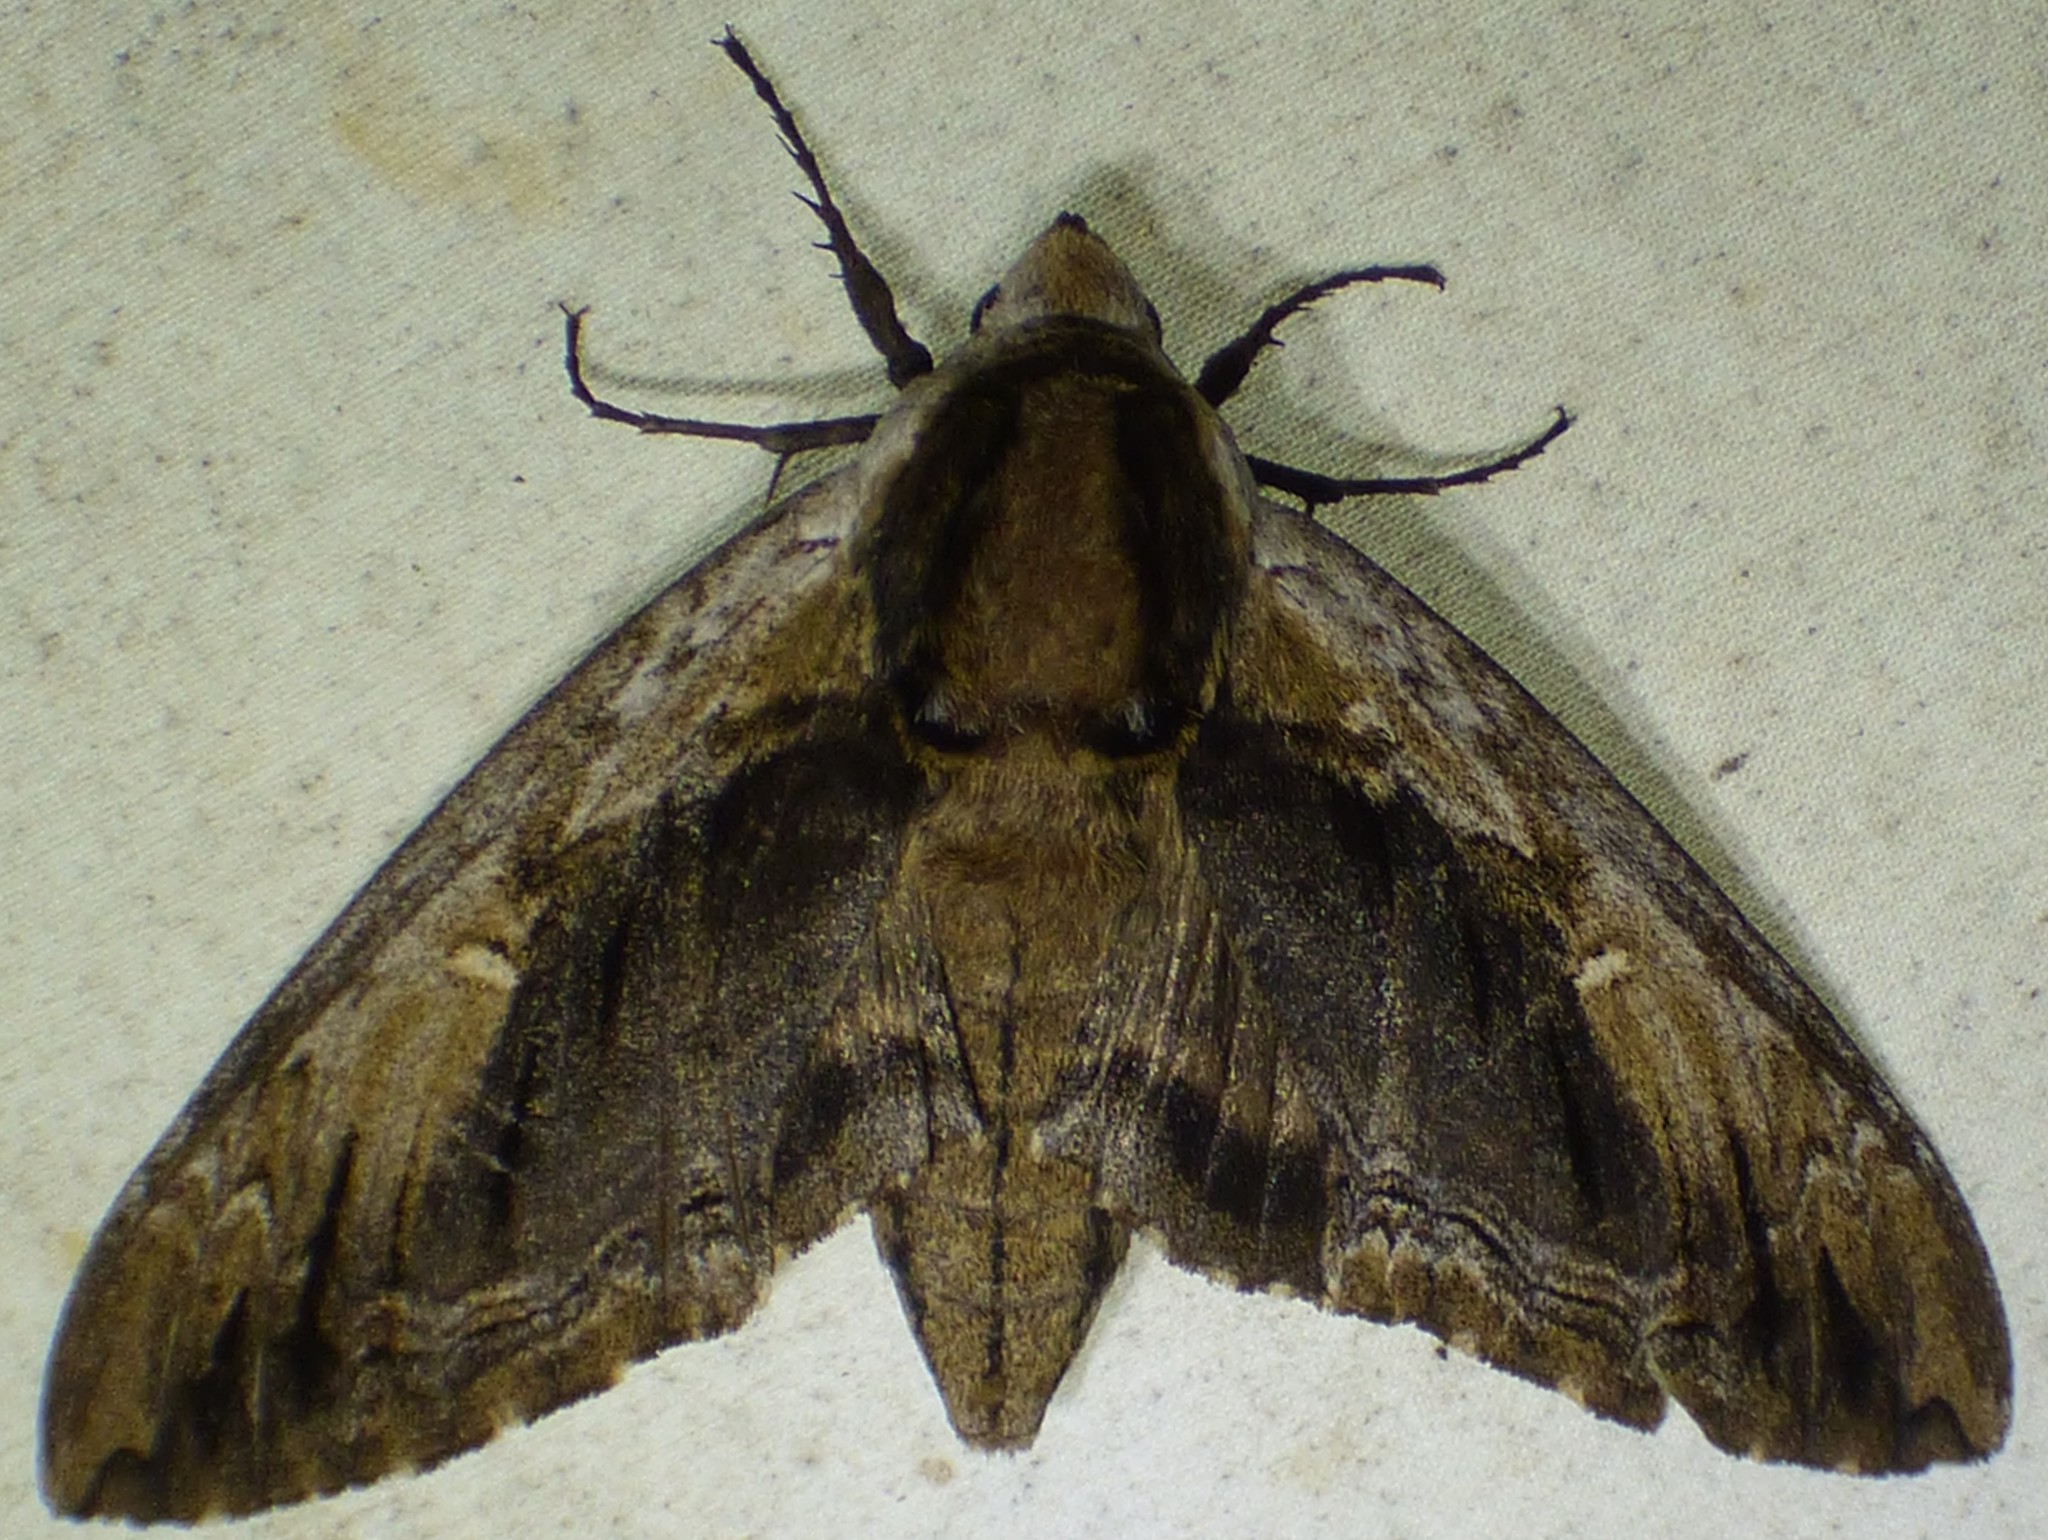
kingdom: Animalia
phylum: Arthropoda
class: Insecta
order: Lepidoptera
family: Sphingidae
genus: Ceratomia
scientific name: Ceratomia amyntor
